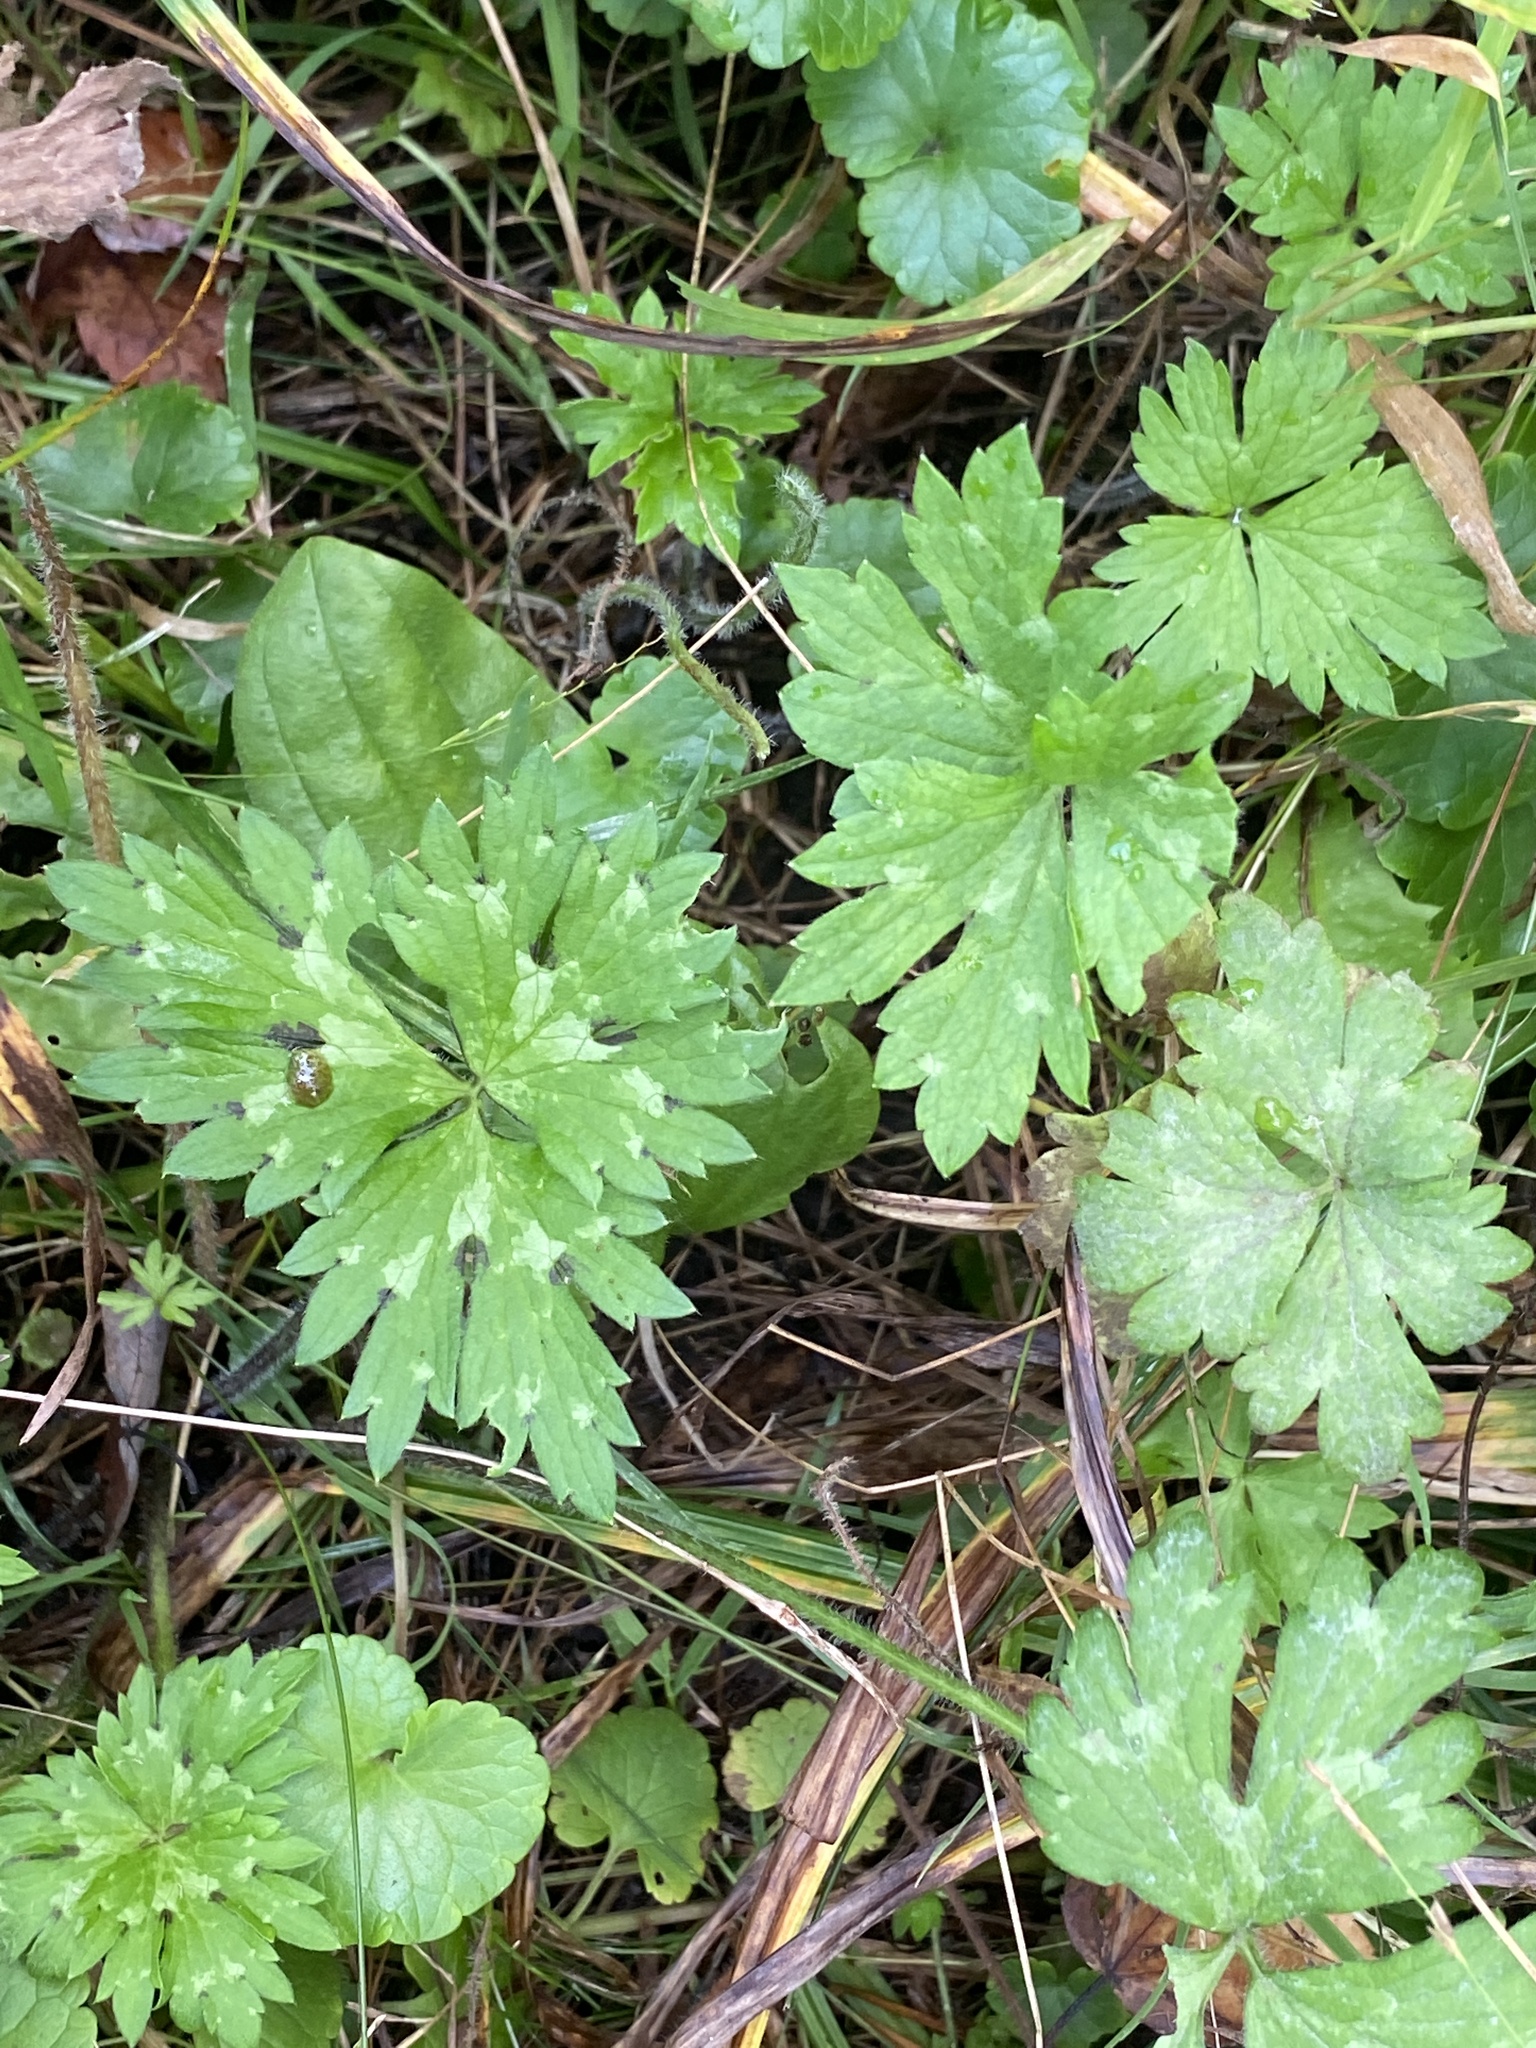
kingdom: Plantae
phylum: Tracheophyta
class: Magnoliopsida
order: Ranunculales
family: Ranunculaceae
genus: Ranunculus
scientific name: Ranunculus repens
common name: Creeping buttercup
